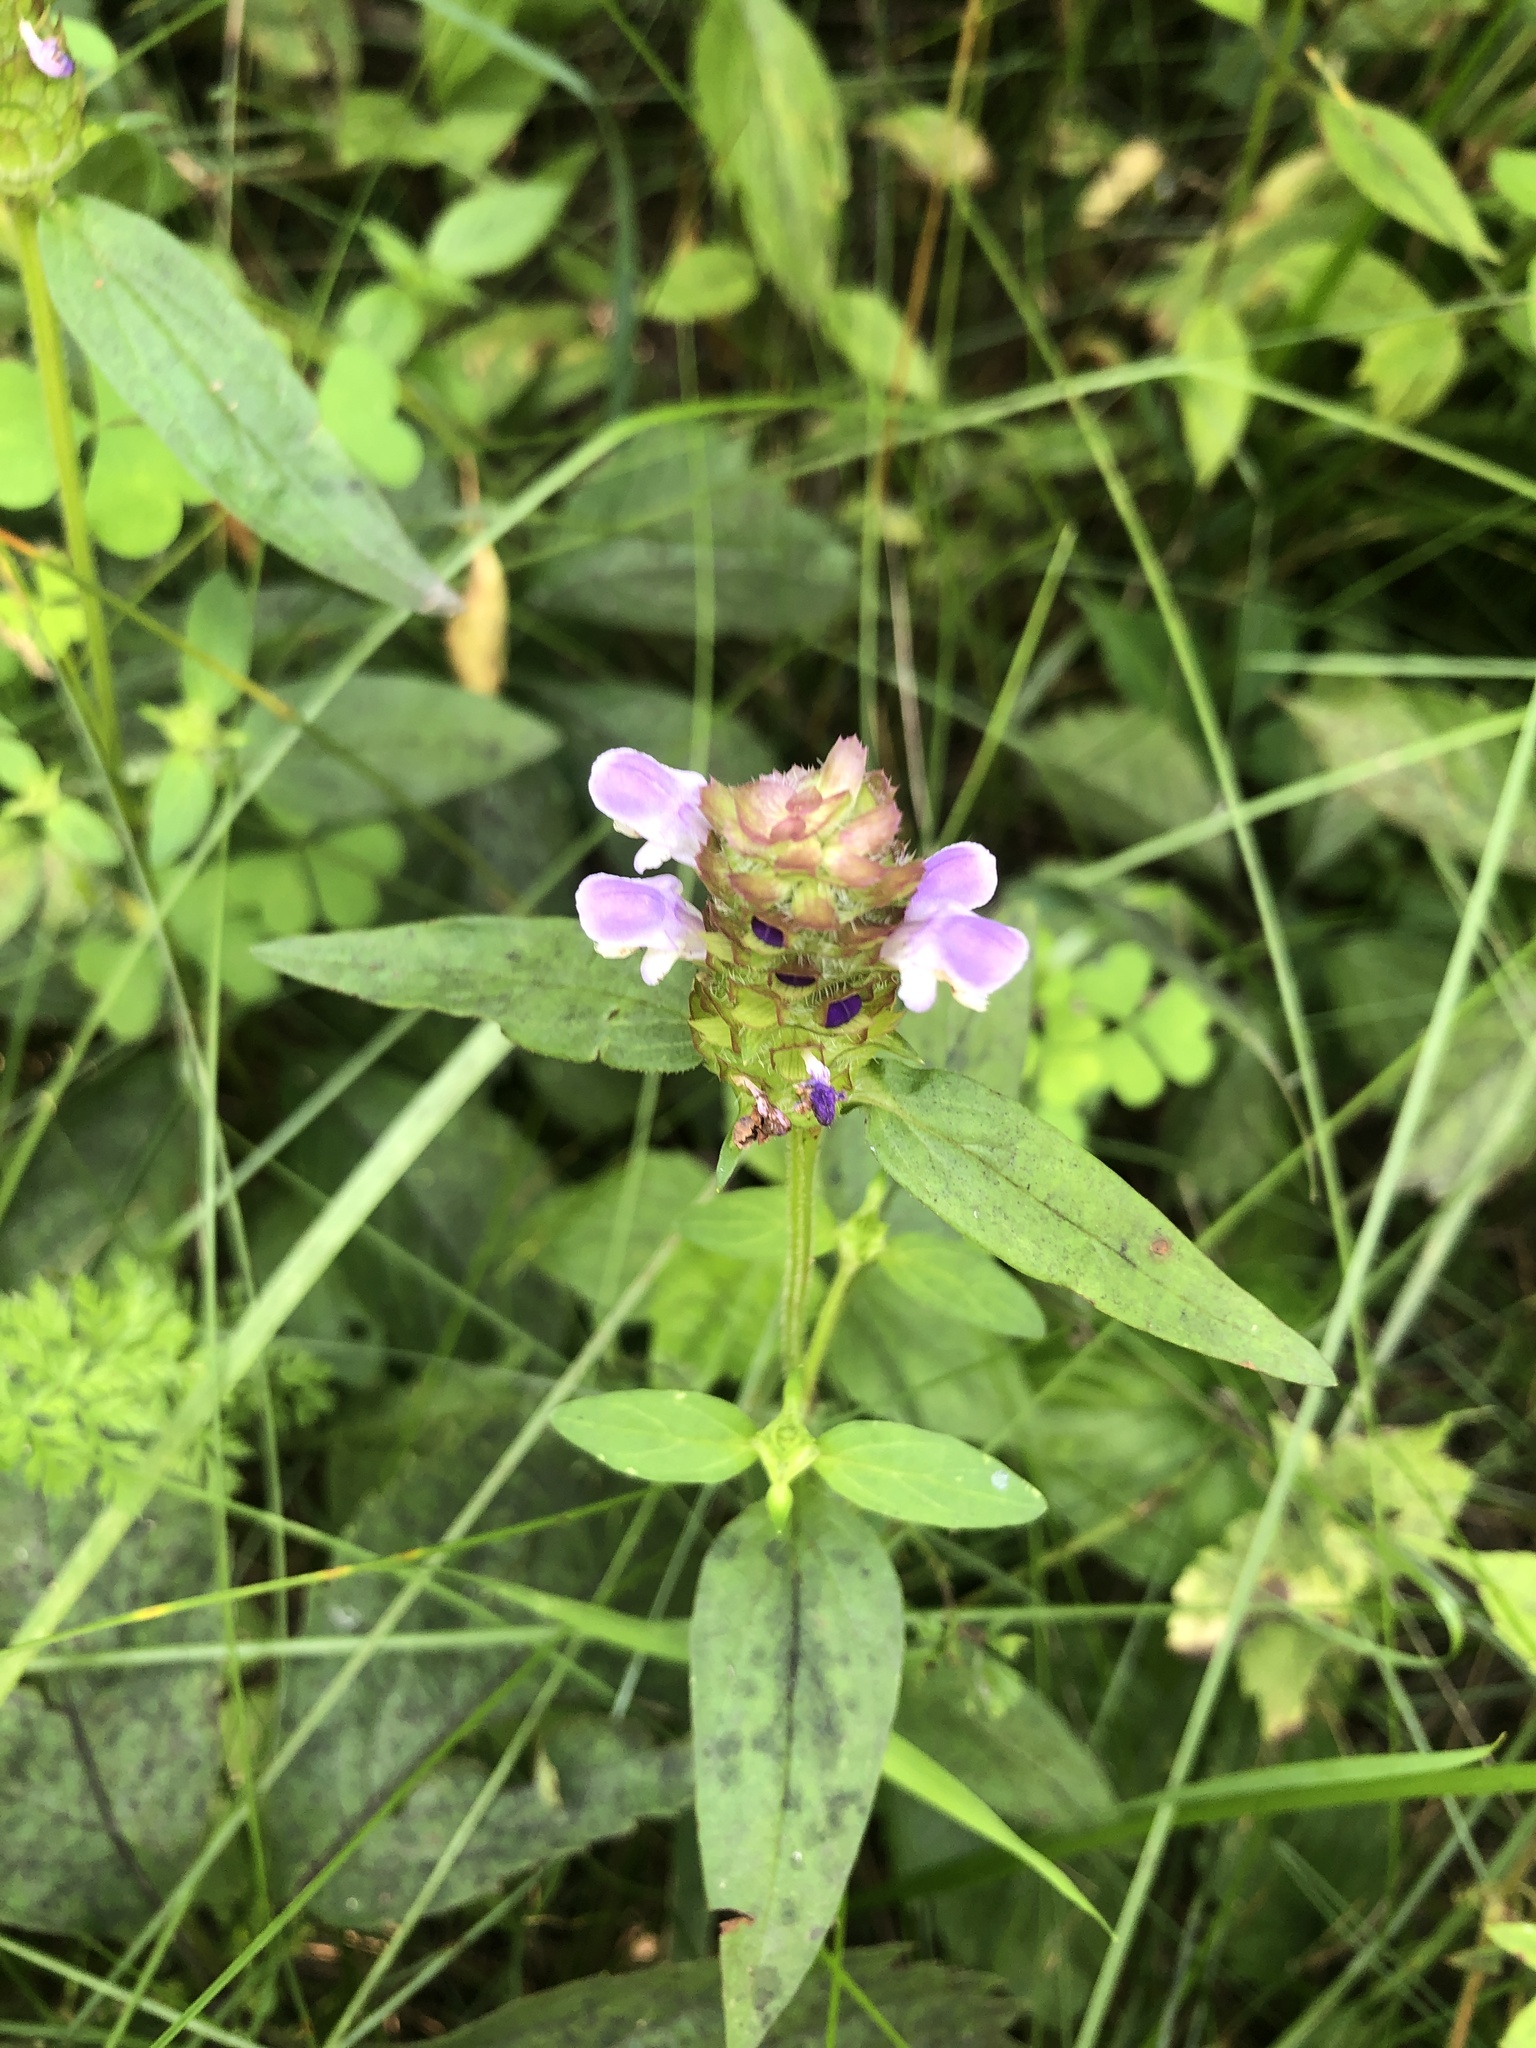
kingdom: Plantae
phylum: Tracheophyta
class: Magnoliopsida
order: Lamiales
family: Lamiaceae
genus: Prunella
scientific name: Prunella vulgaris
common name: Heal-all
